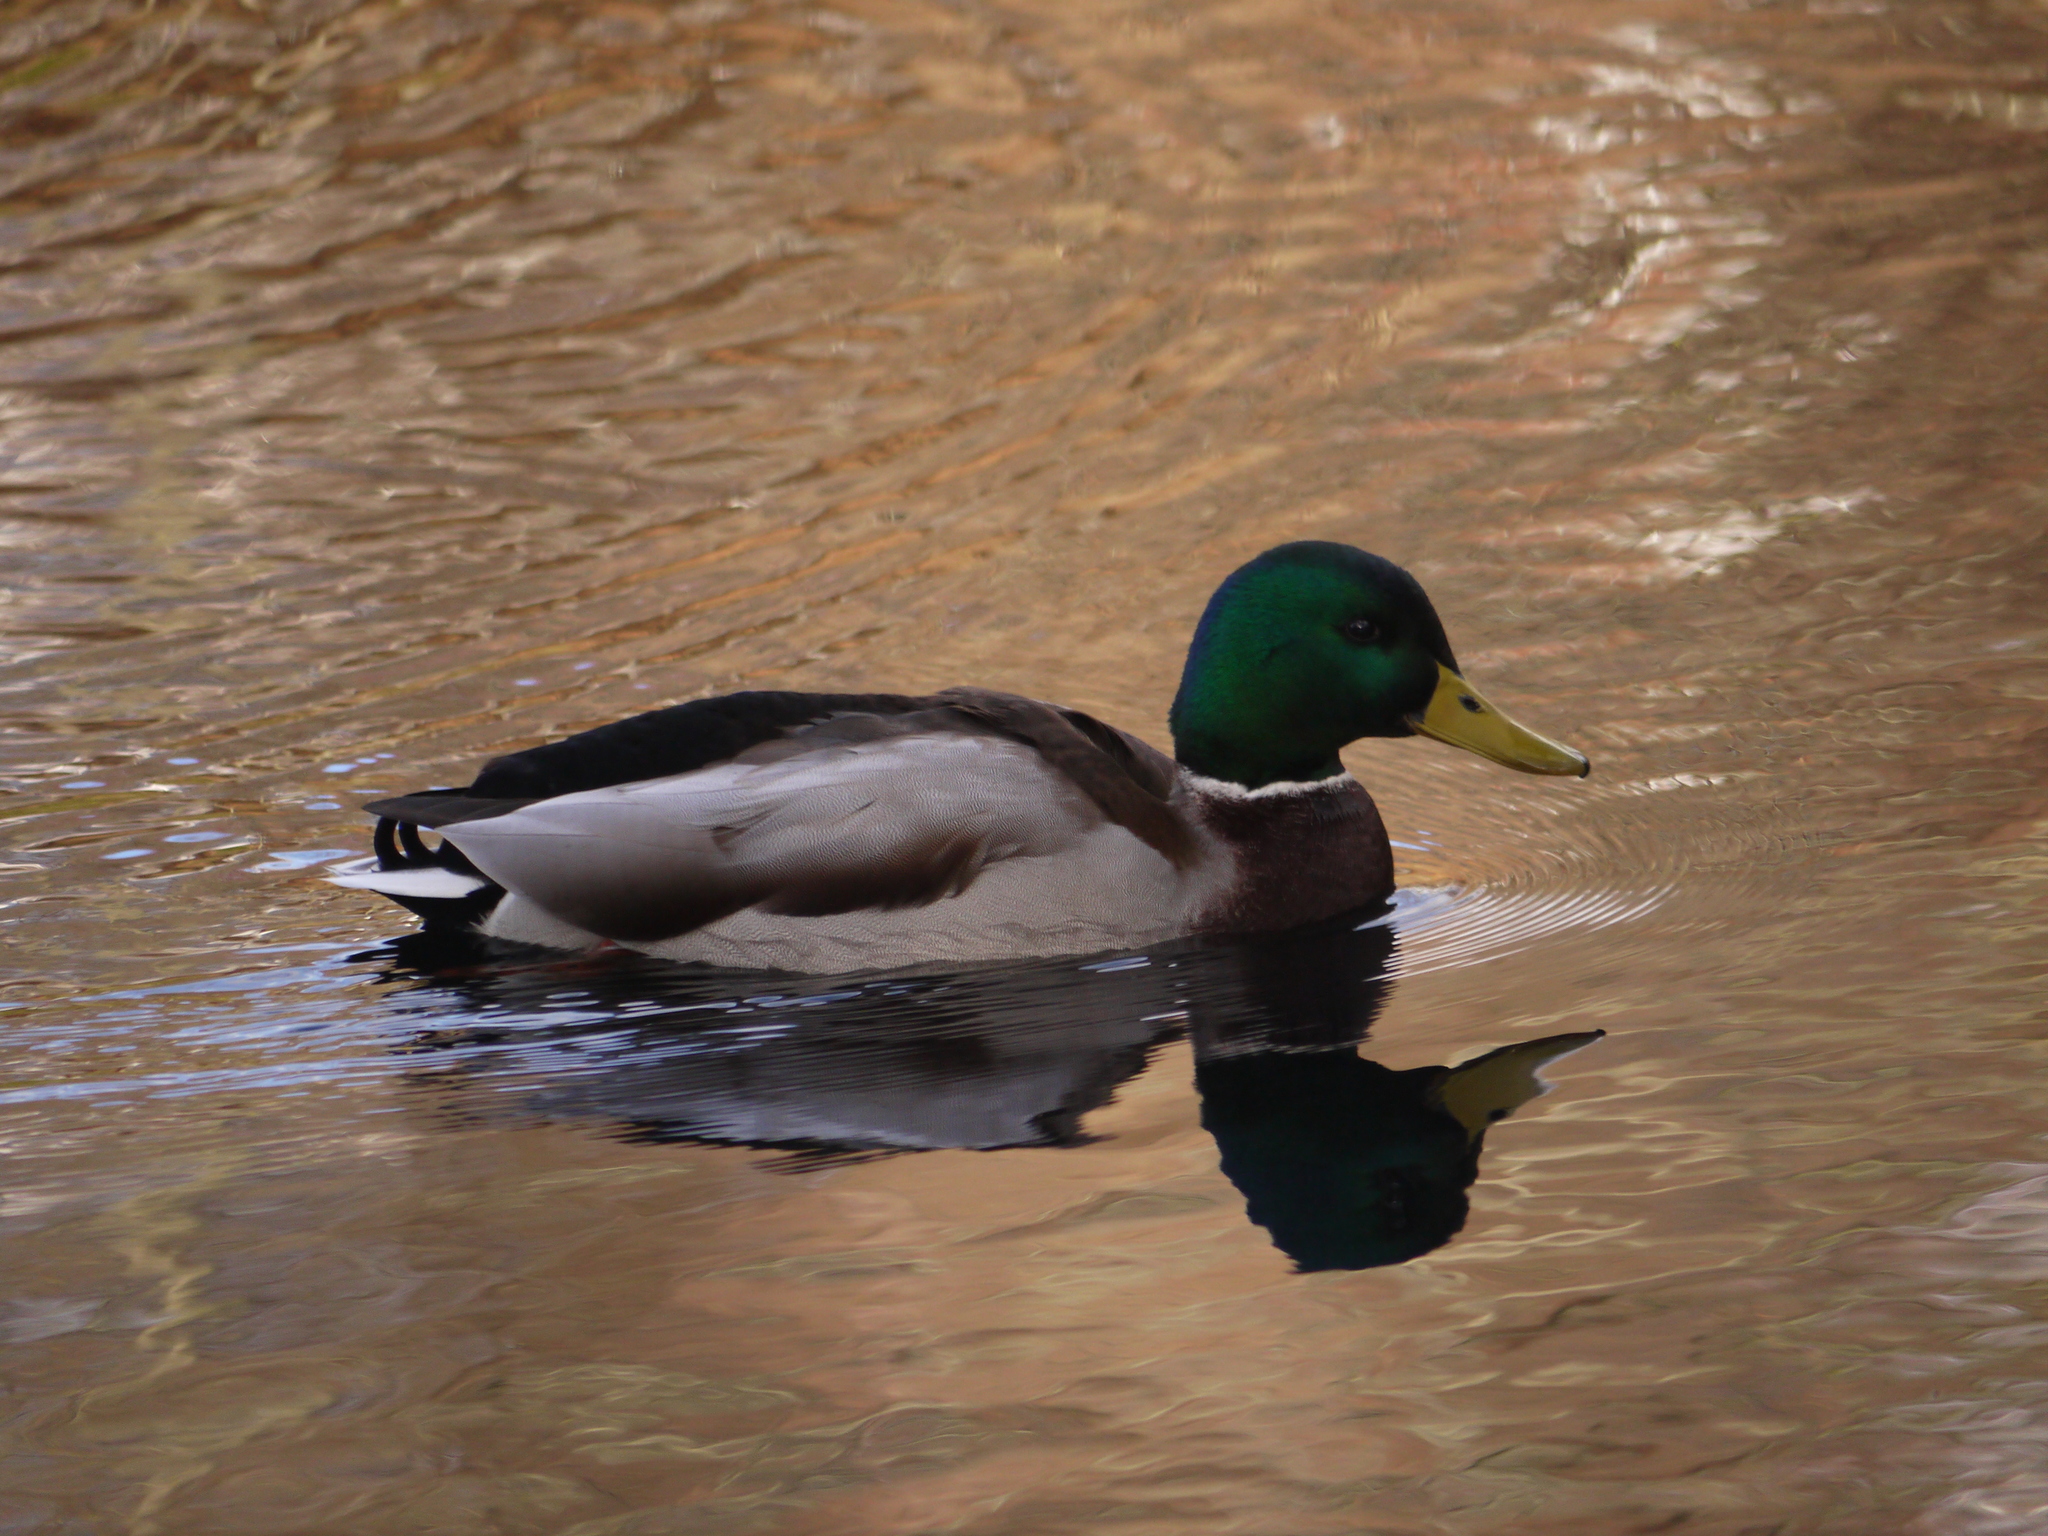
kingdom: Animalia
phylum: Chordata
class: Aves
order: Anseriformes
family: Anatidae
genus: Anas
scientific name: Anas platyrhynchos
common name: Mallard
